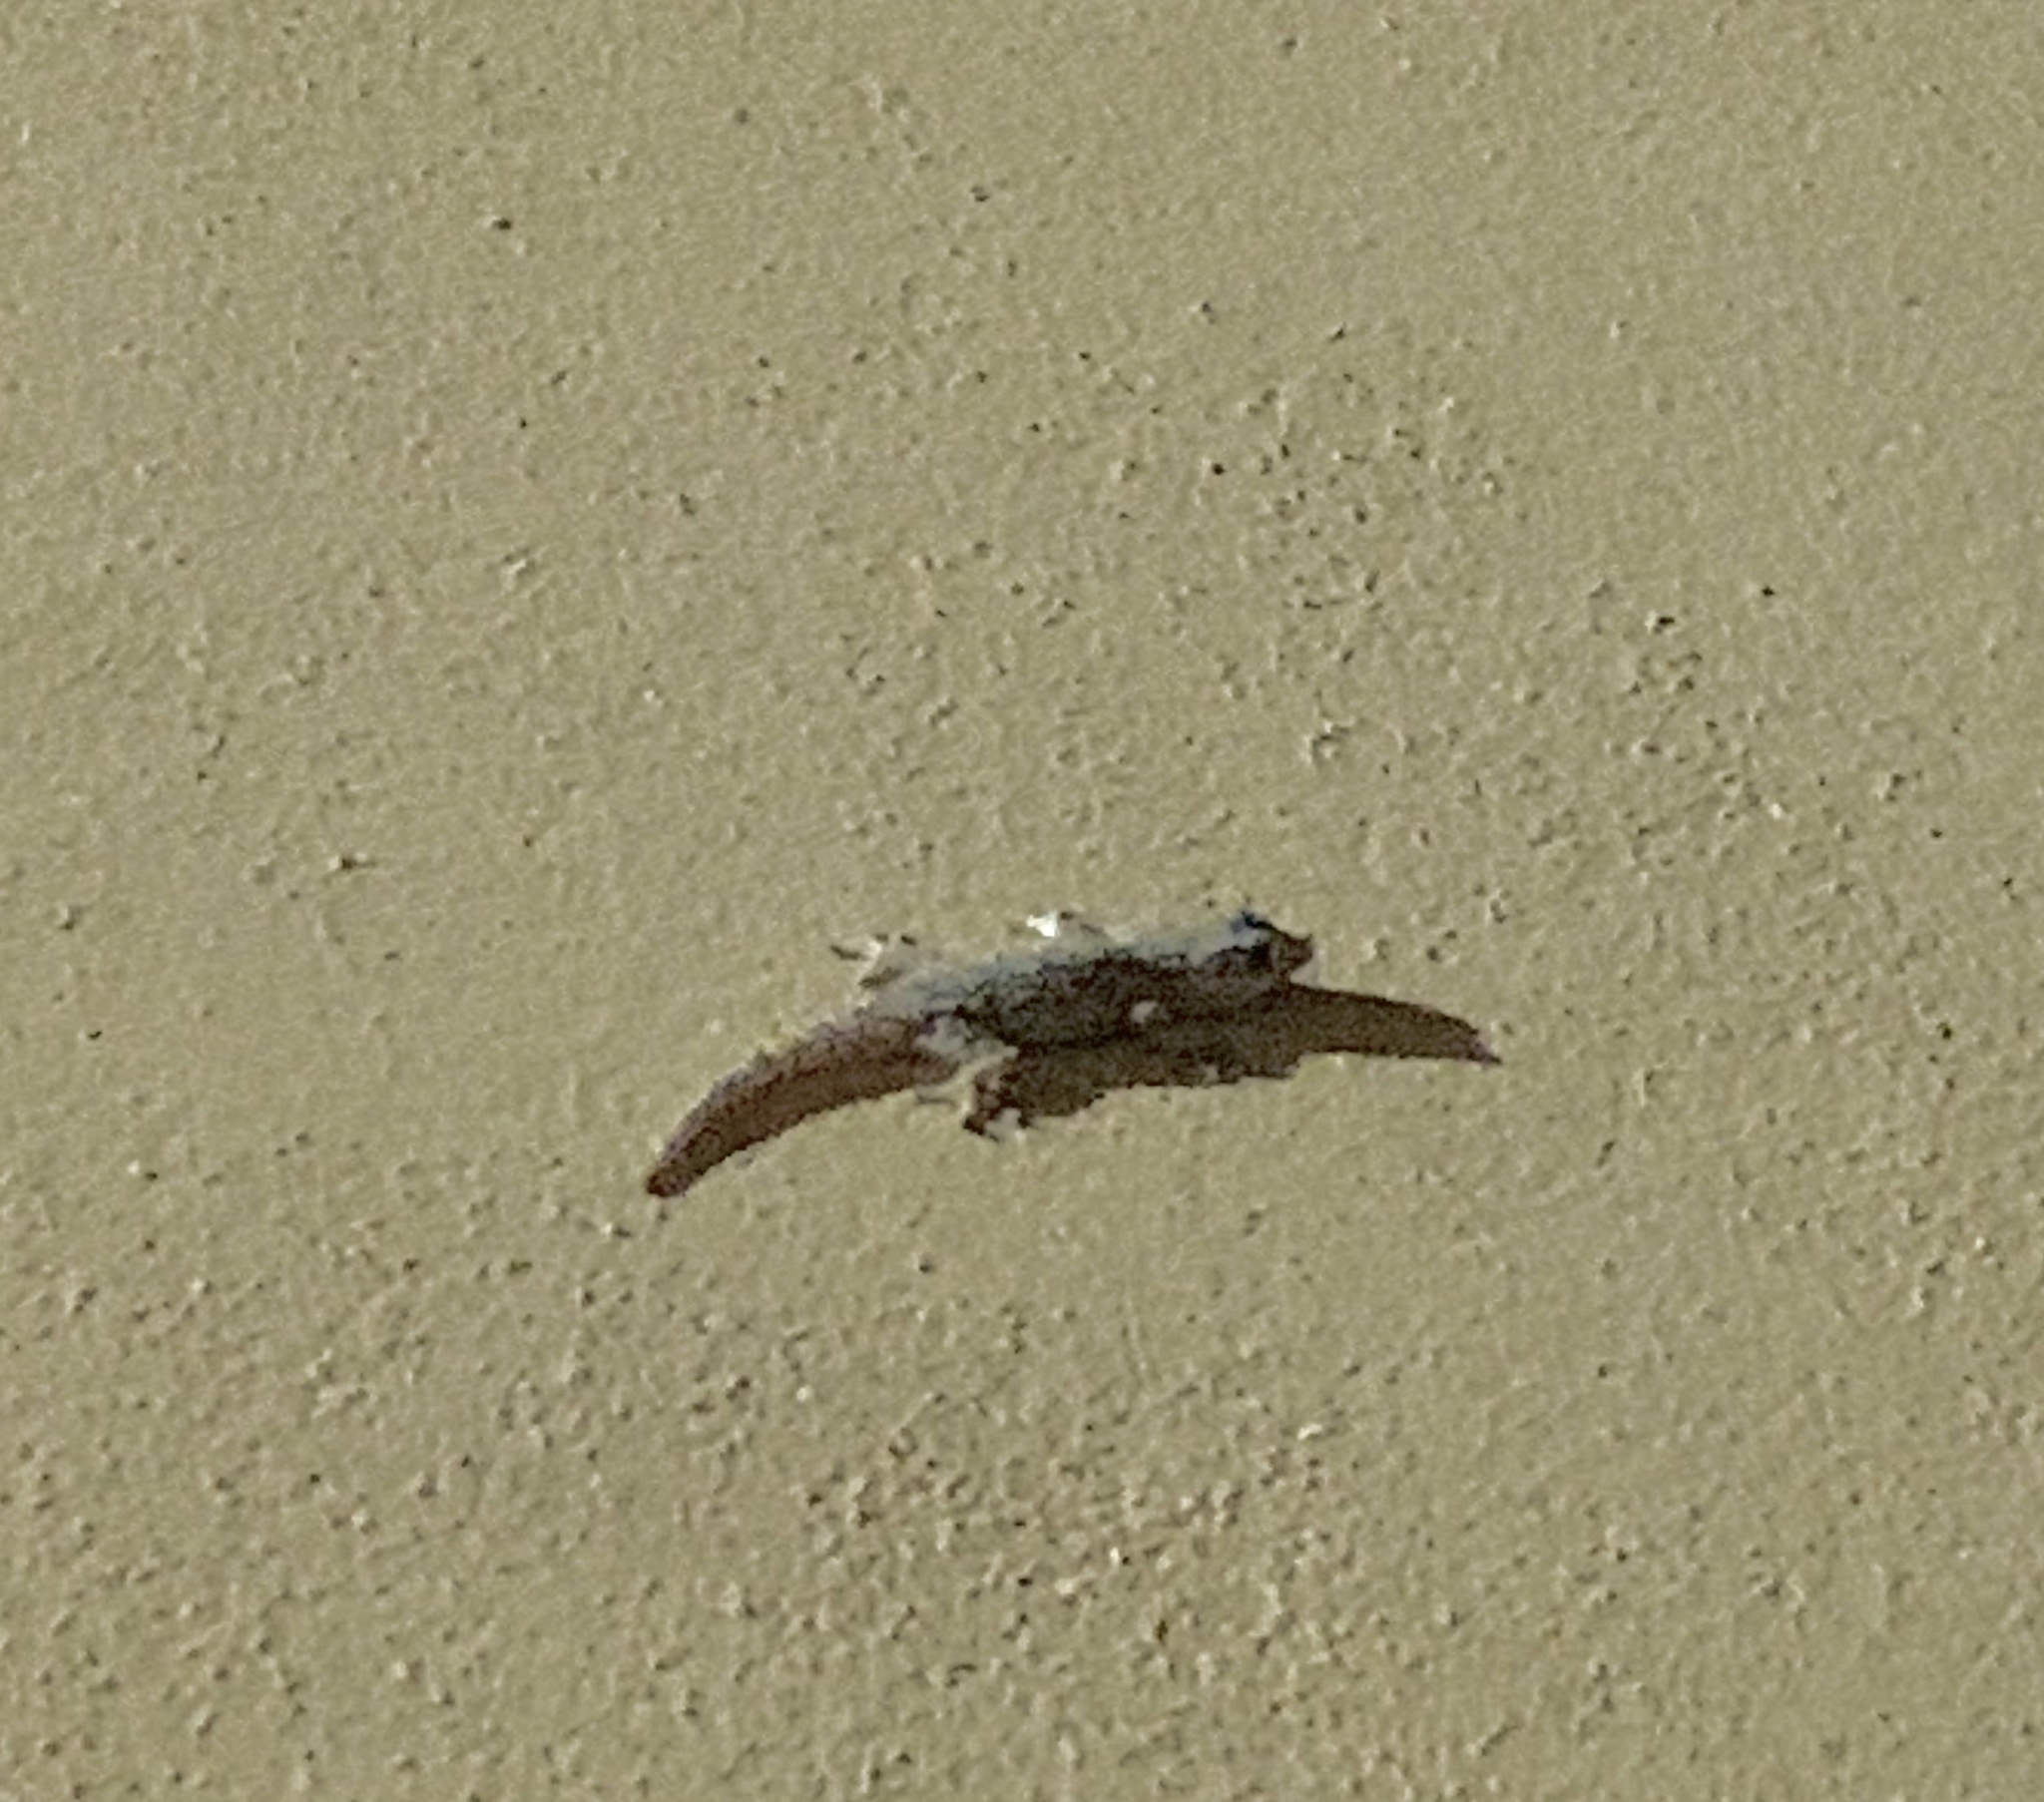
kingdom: Animalia
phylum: Chordata
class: Squamata
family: Phyllodactylidae
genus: Tarentola
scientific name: Tarentola mauritanica
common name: Moorish gecko
